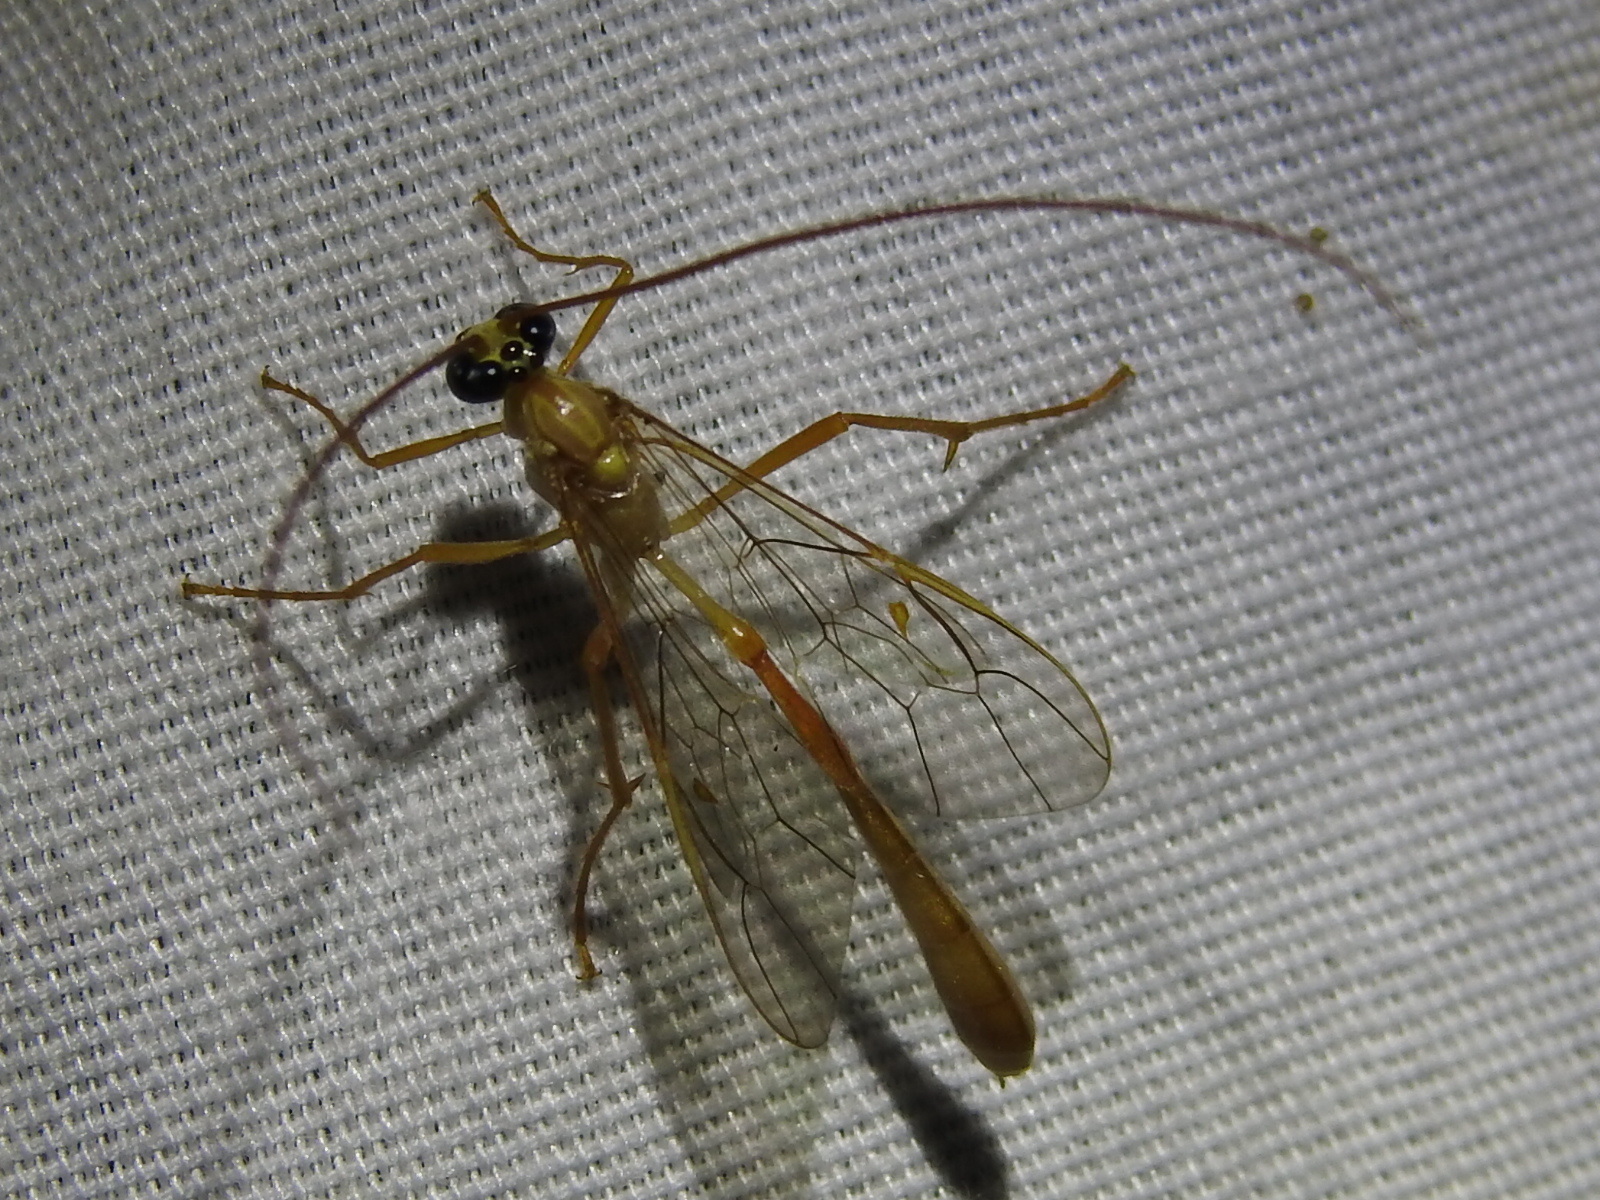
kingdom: Animalia
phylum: Arthropoda
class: Insecta
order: Hymenoptera
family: Ichneumonidae
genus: Enicospilus
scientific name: Enicospilus guatemalensis
